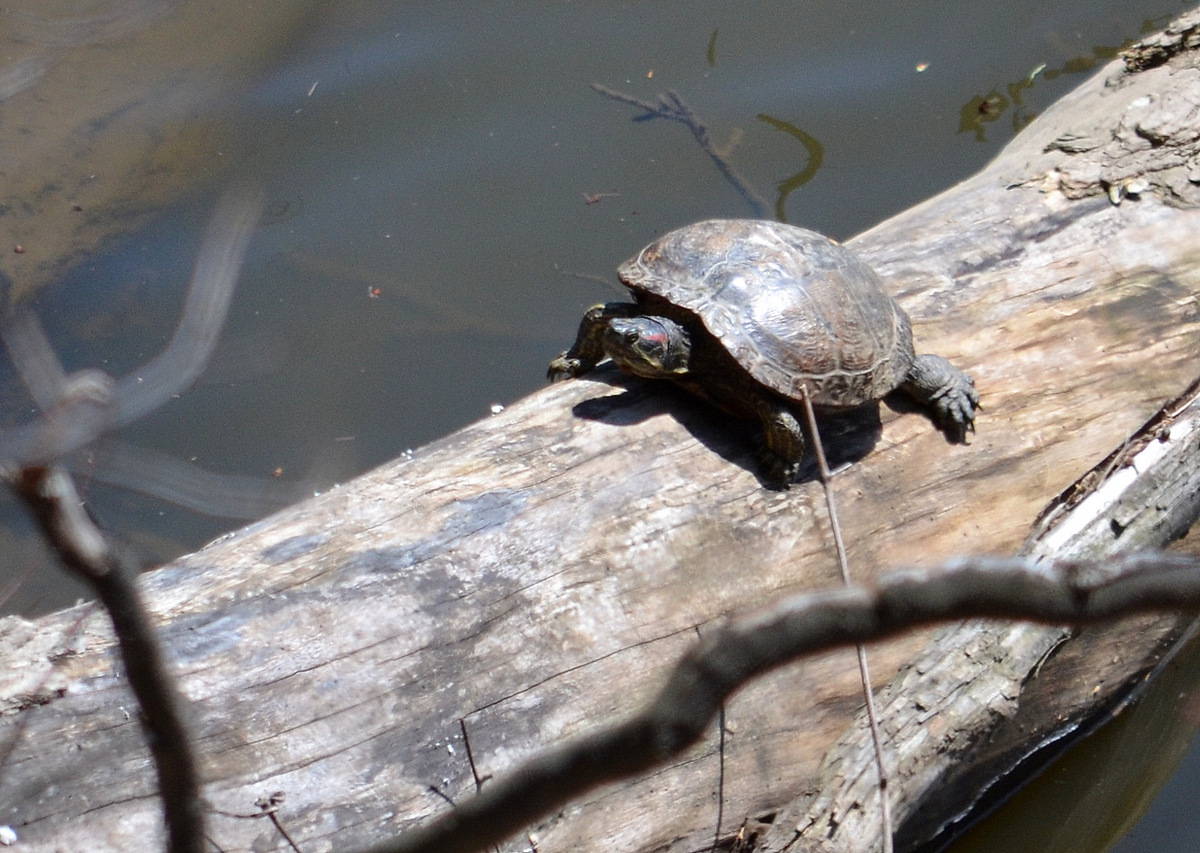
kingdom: Animalia
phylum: Chordata
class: Testudines
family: Emydidae
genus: Trachemys
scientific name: Trachemys scripta
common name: Slider
